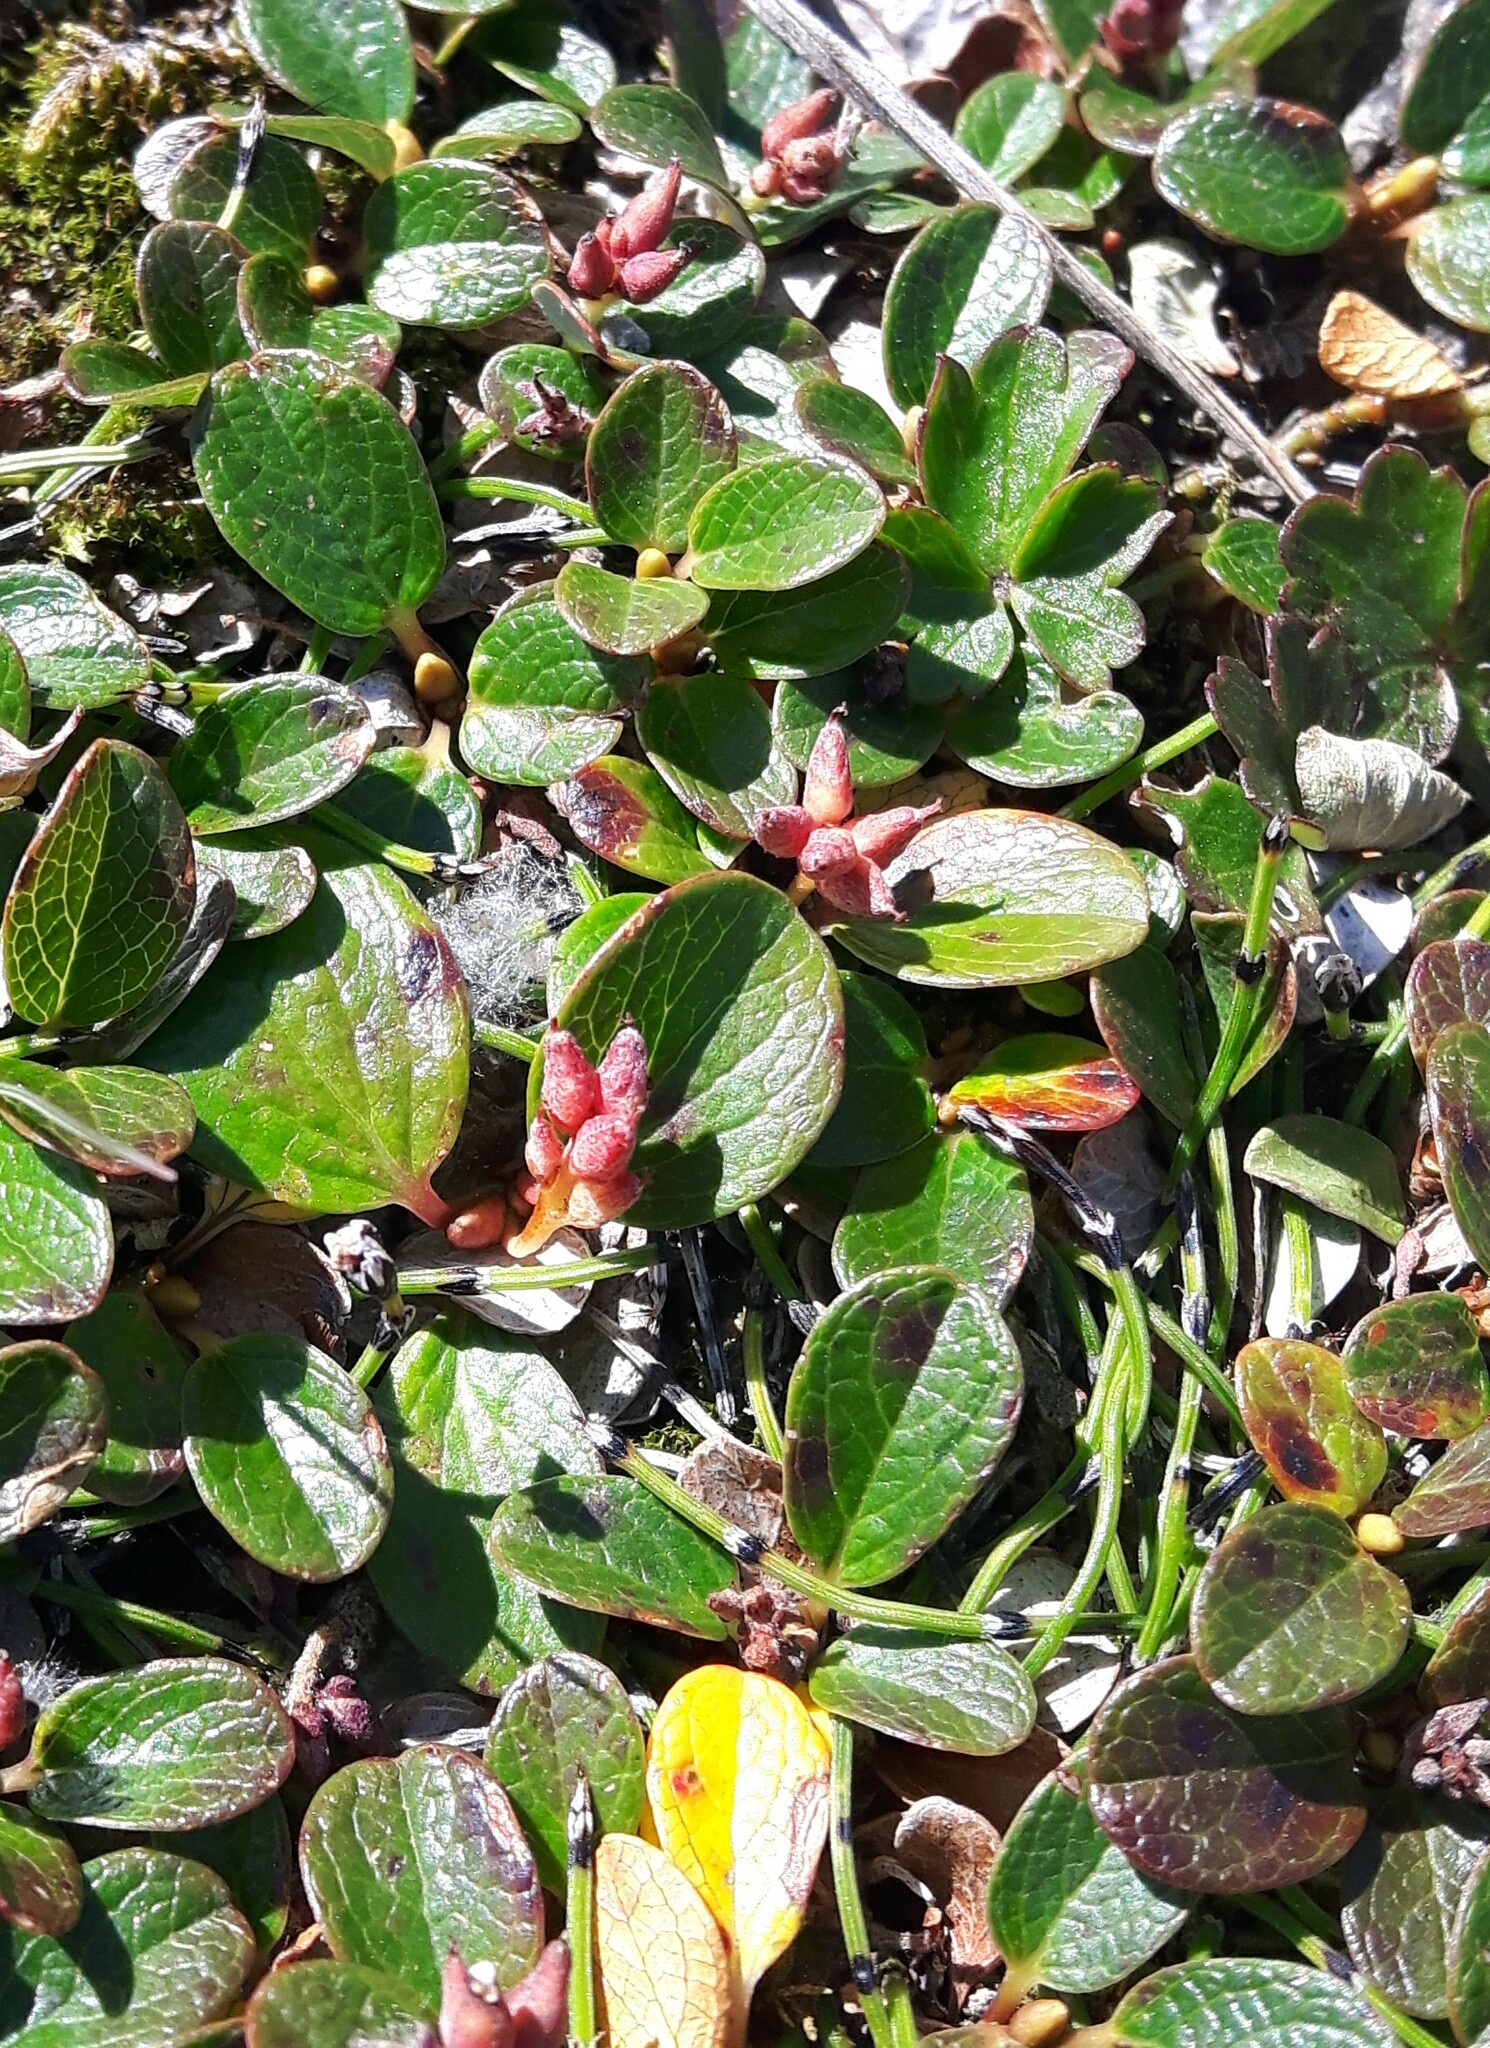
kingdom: Plantae
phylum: Tracheophyta
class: Magnoliopsida
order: Malpighiales
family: Salicaceae
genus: Salix
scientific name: Salix nivalis
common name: Dwarf snow willow
